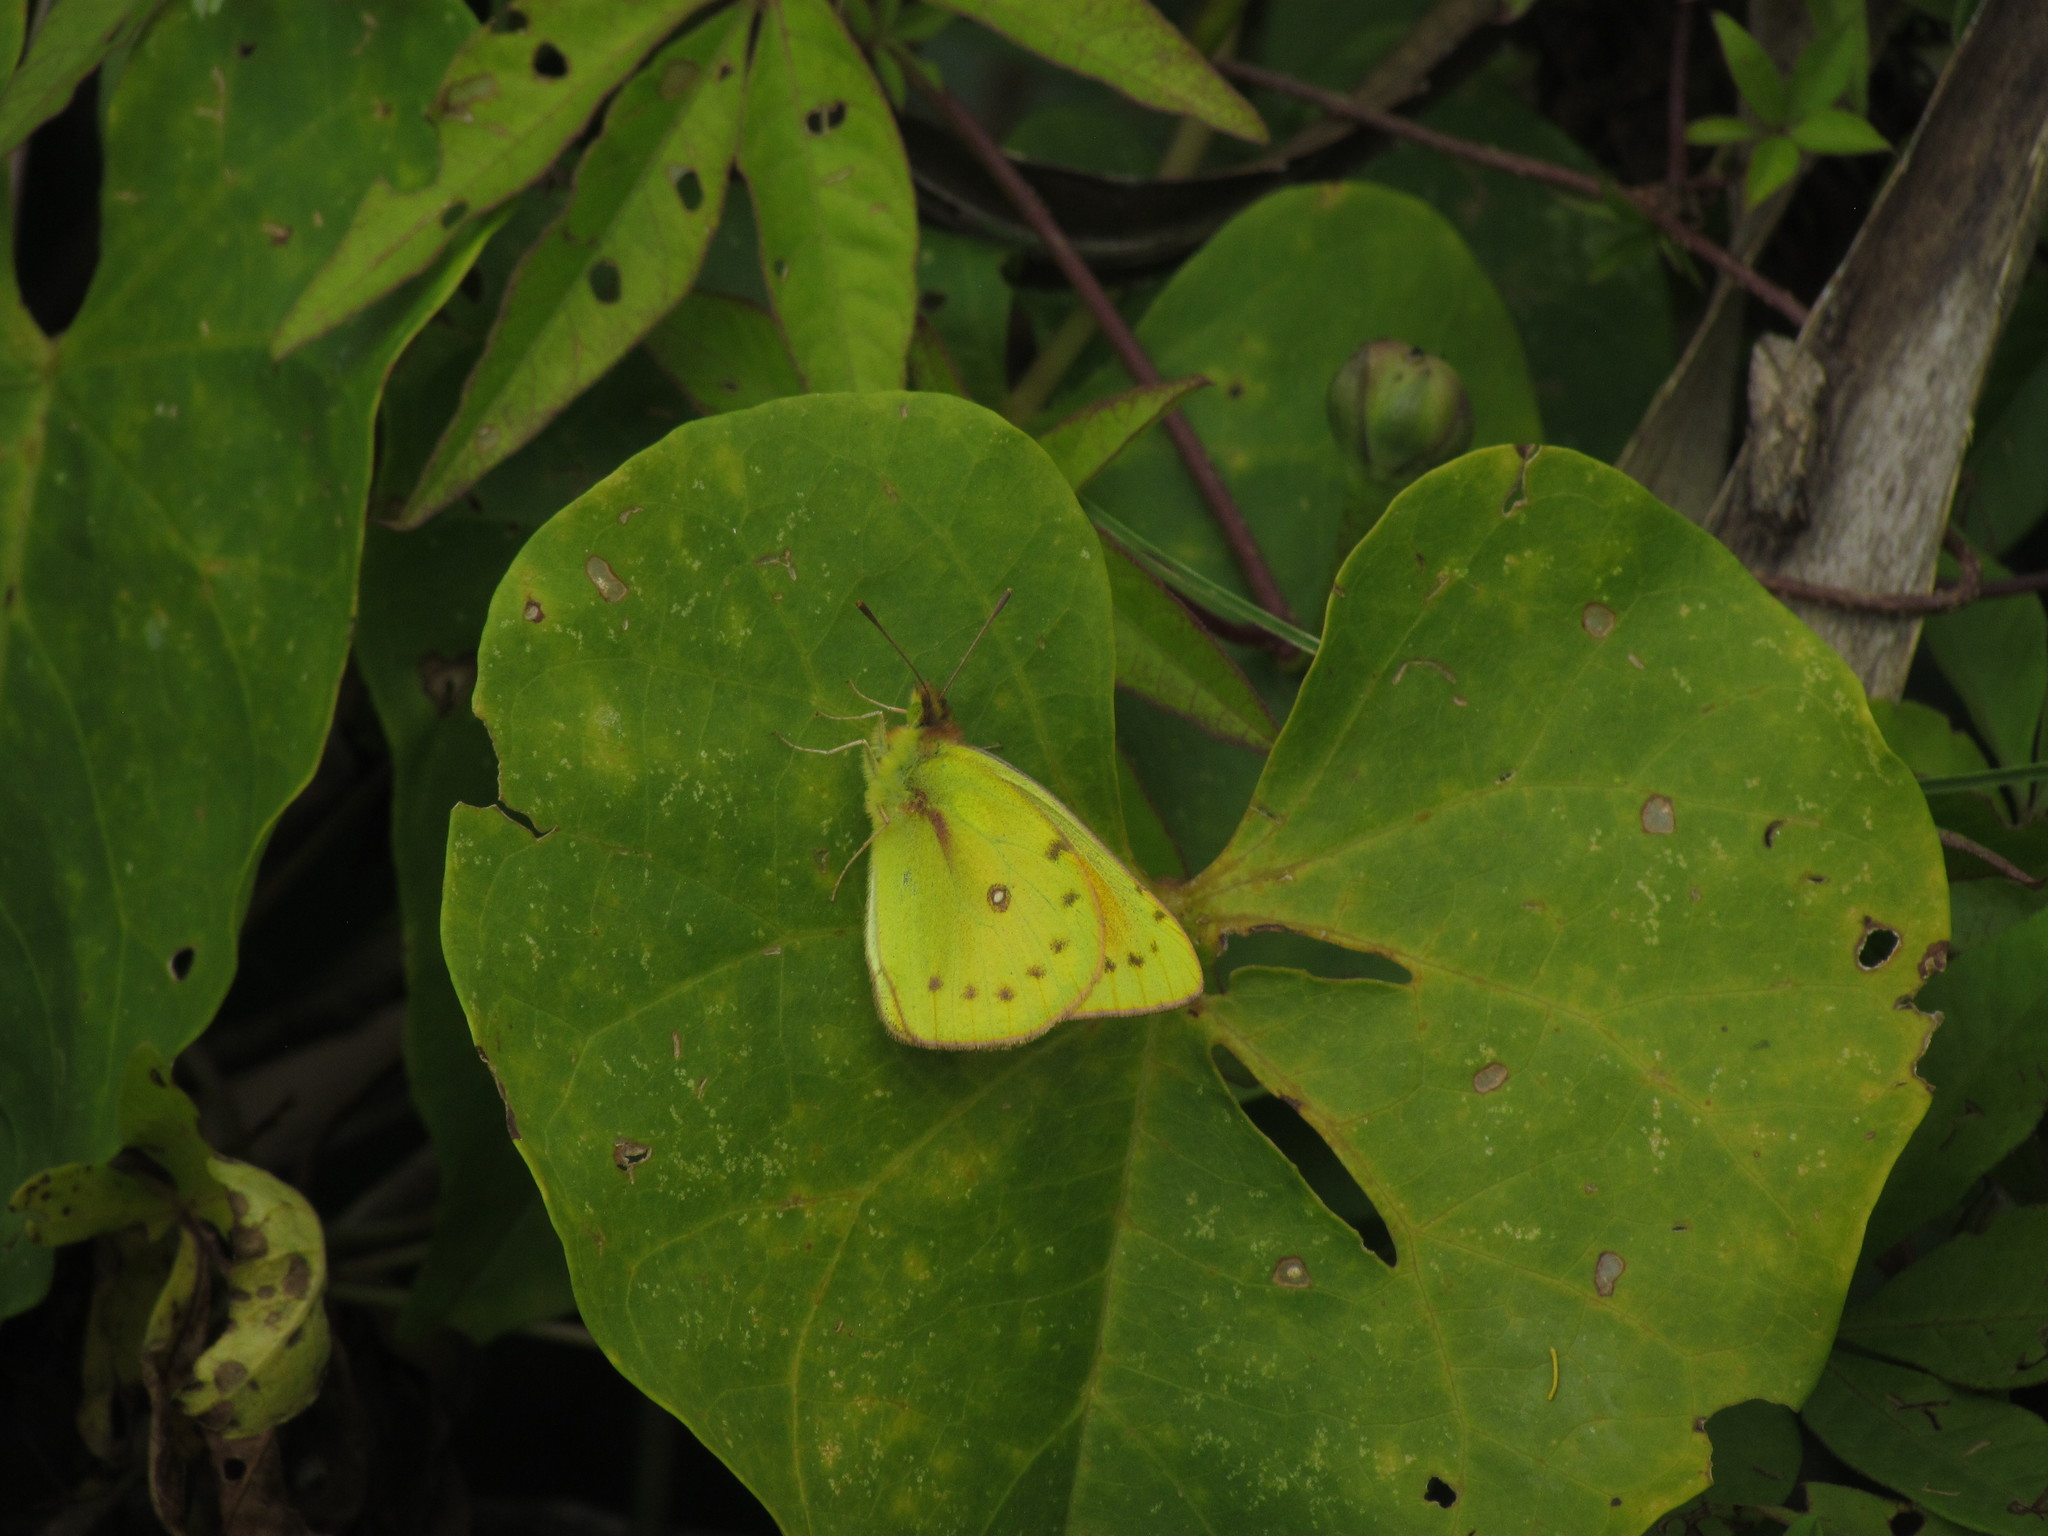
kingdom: Animalia
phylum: Arthropoda
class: Insecta
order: Lepidoptera
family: Pieridae
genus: Colias
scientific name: Colias lesbia
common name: Lesbia clouded yellow
